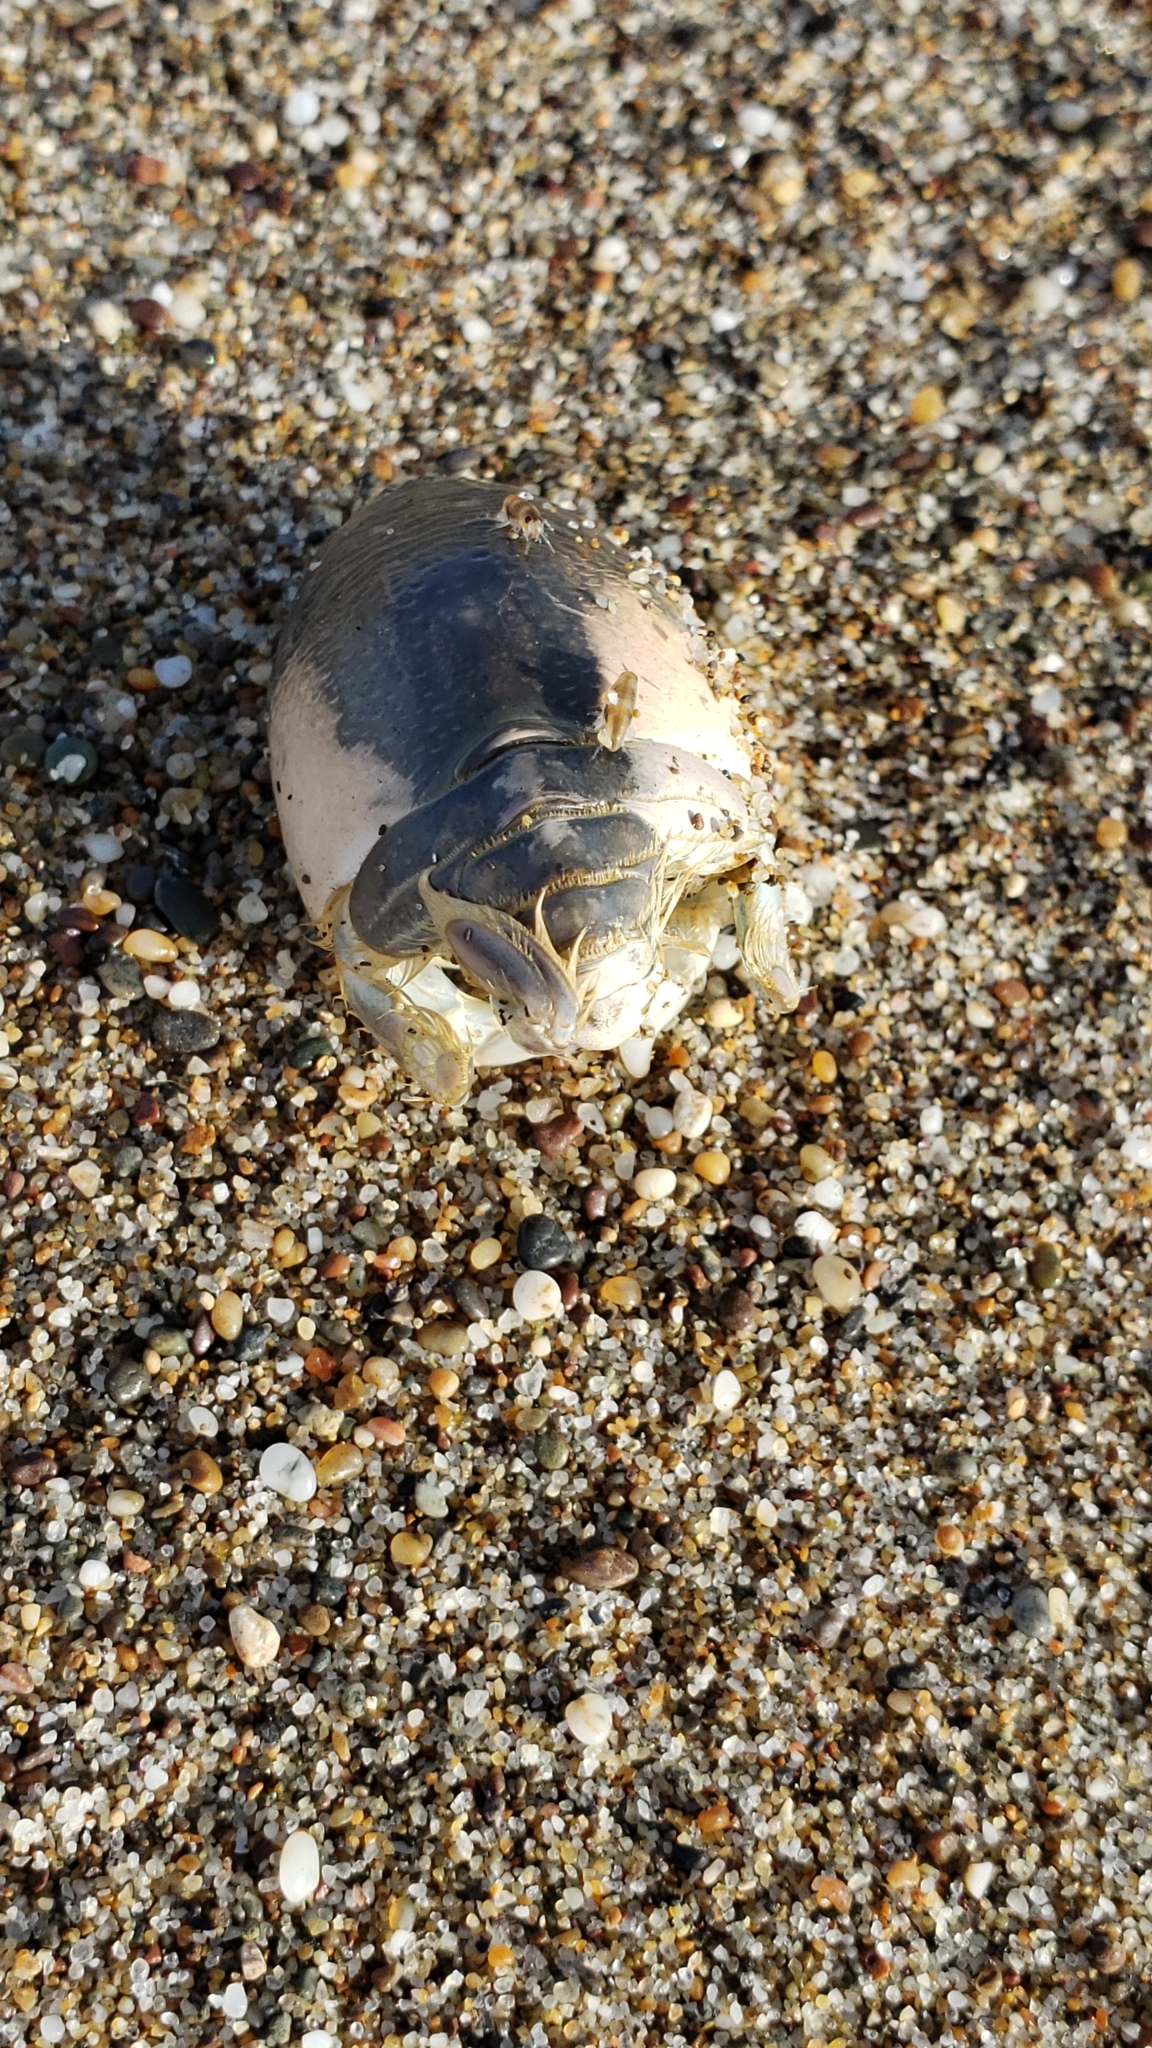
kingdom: Animalia
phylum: Arthropoda
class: Malacostraca
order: Decapoda
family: Hippidae
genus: Emerita
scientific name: Emerita analoga
